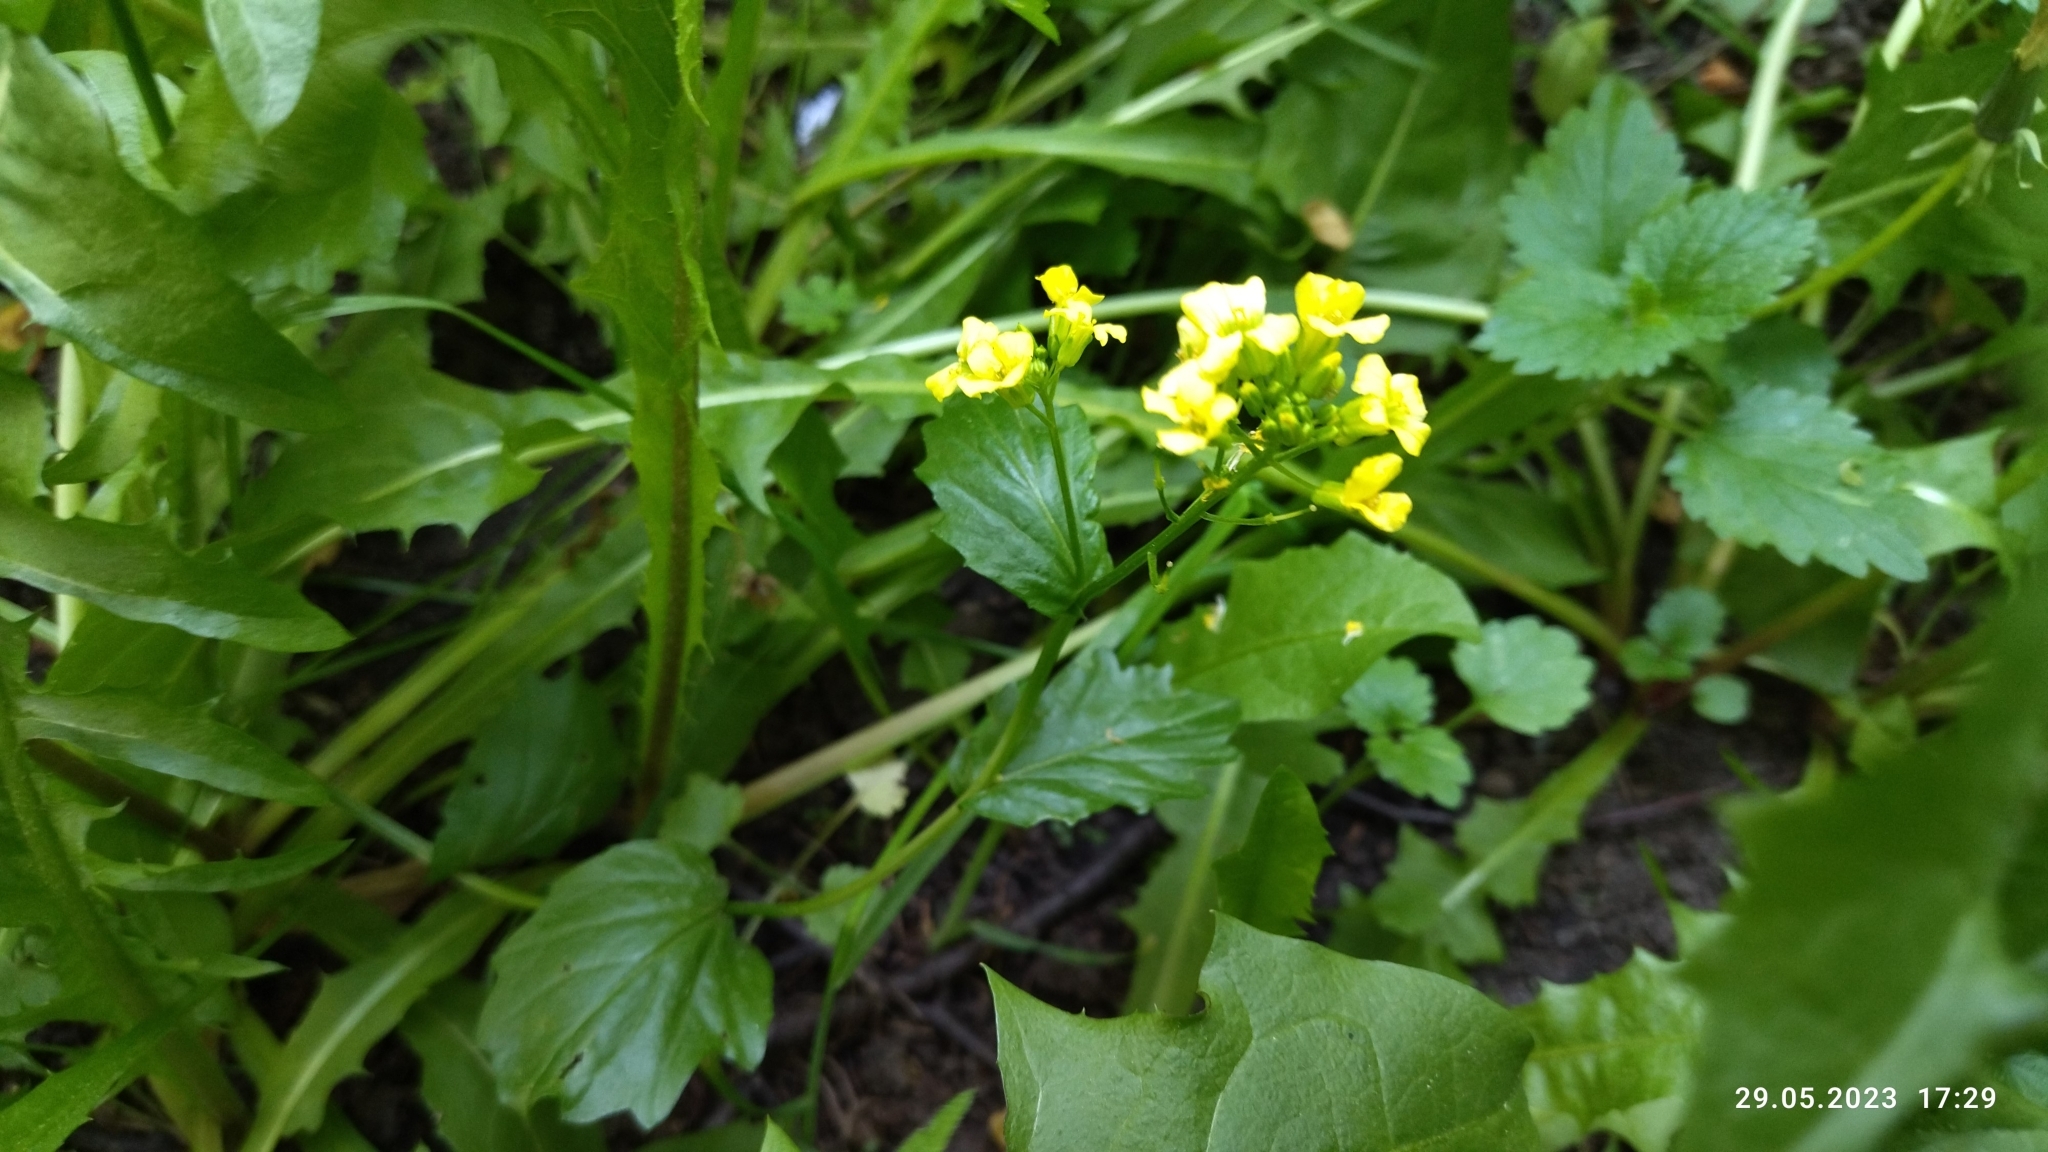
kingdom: Plantae
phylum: Tracheophyta
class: Magnoliopsida
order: Brassicales
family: Brassicaceae
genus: Barbarea
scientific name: Barbarea vulgaris
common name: Cressy-greens
